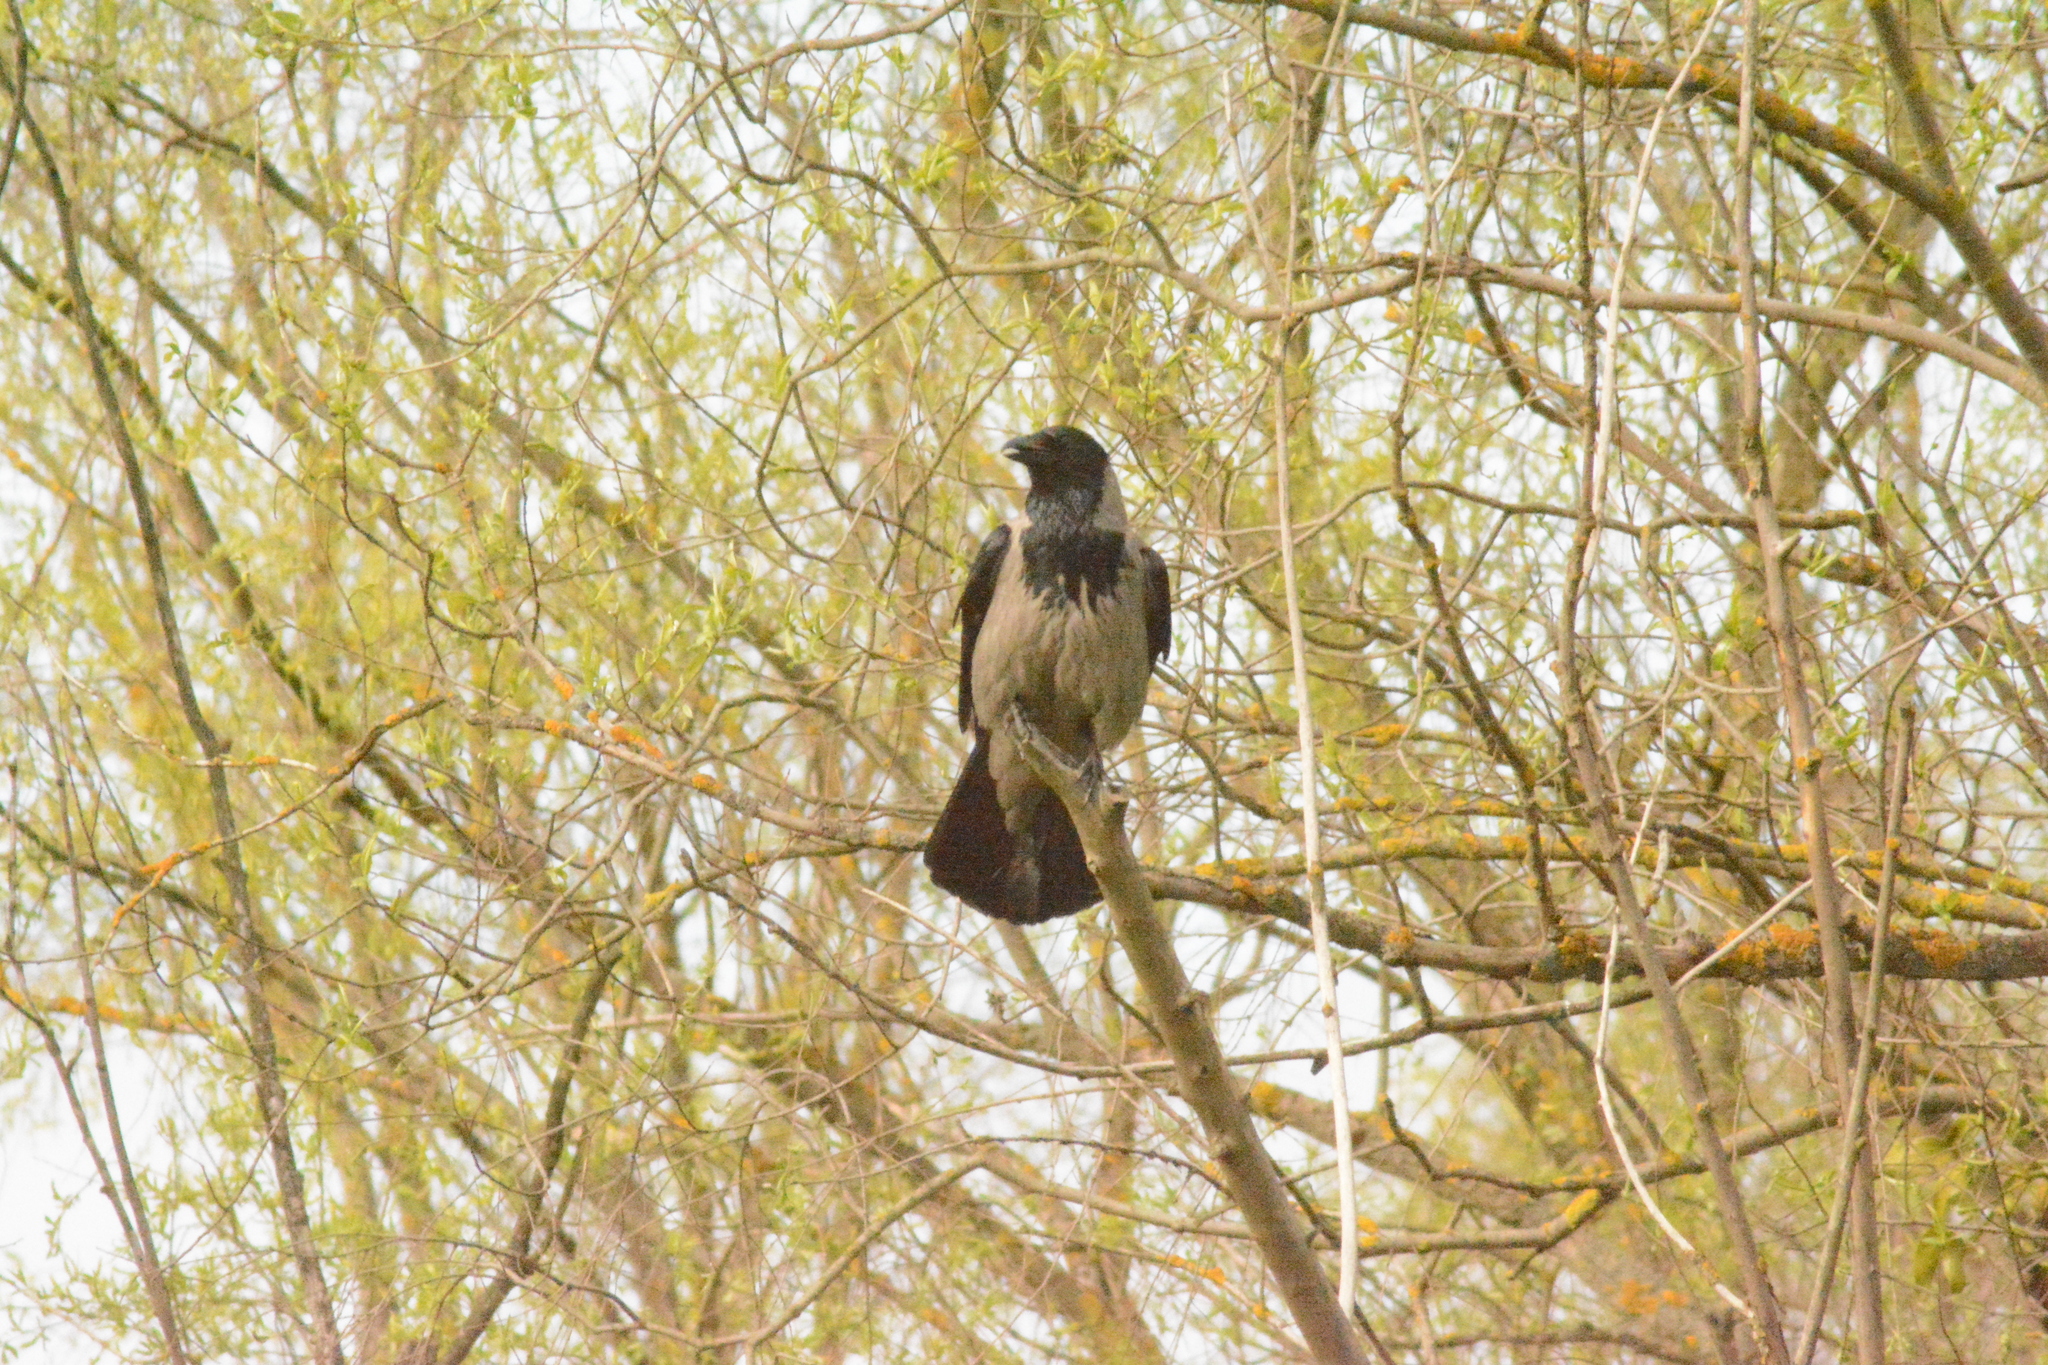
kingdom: Animalia
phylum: Chordata
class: Aves
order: Passeriformes
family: Corvidae
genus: Corvus
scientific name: Corvus cornix
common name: Hooded crow
